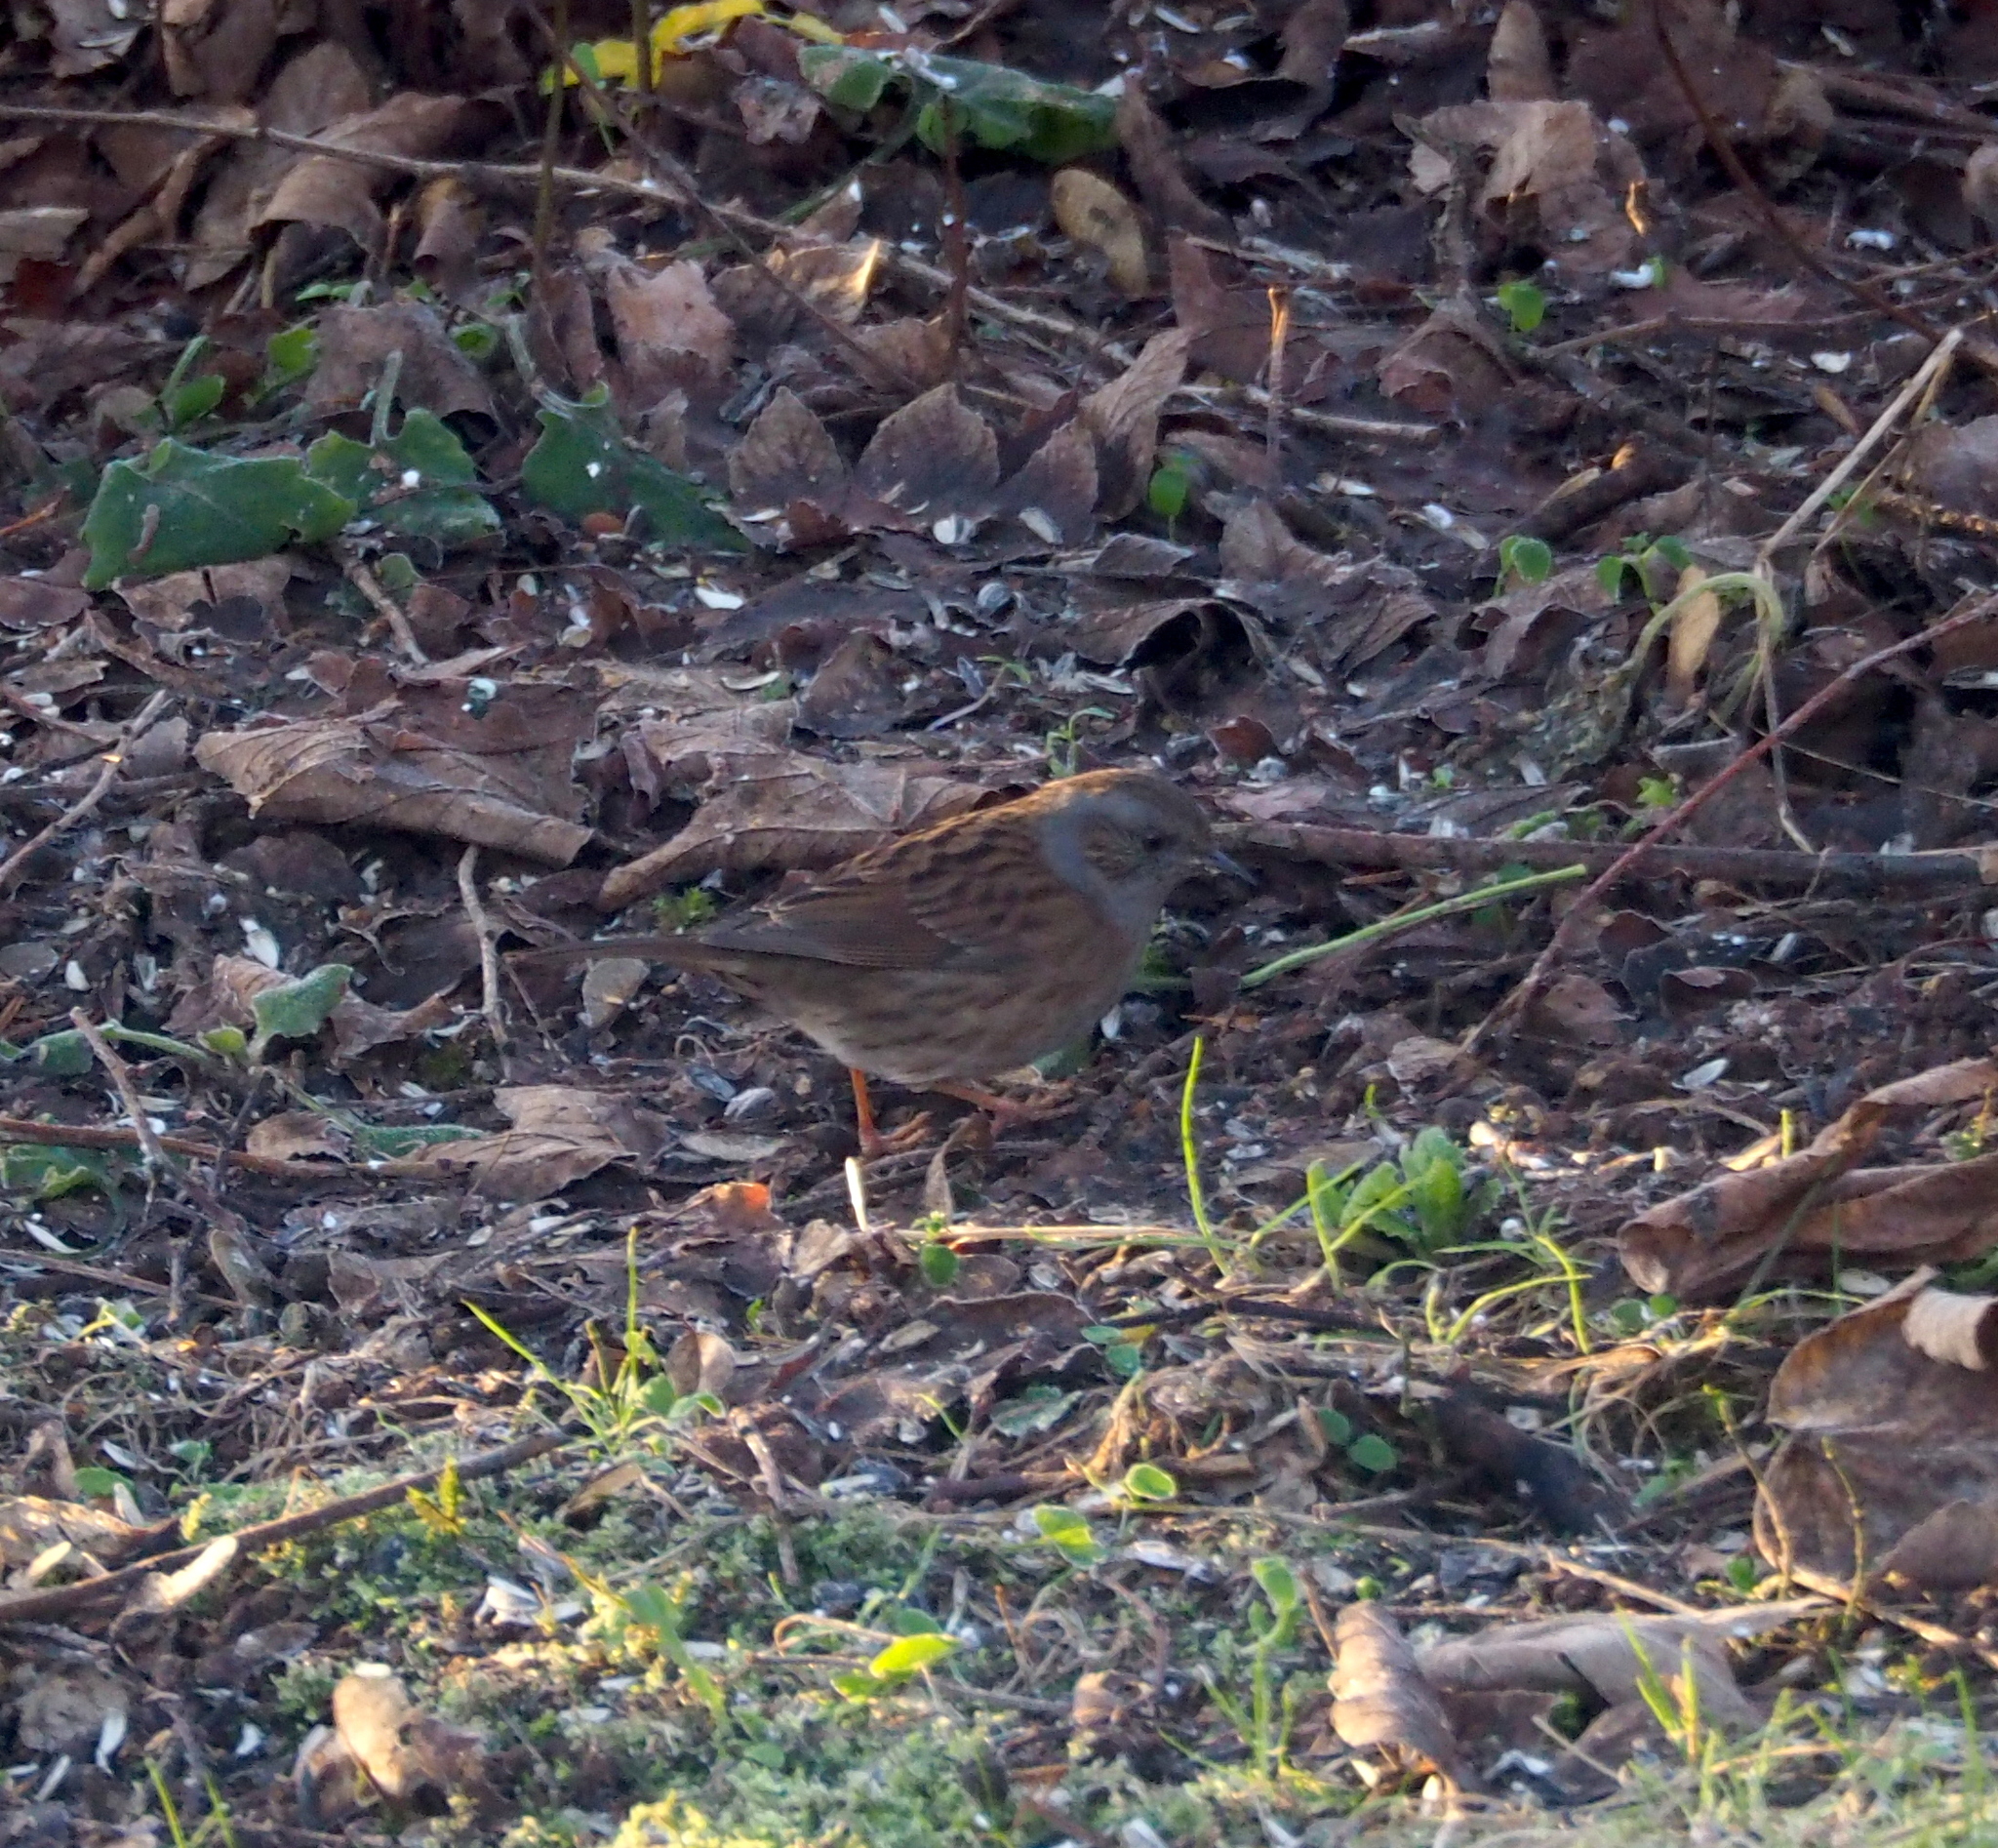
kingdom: Animalia
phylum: Chordata
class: Aves
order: Passeriformes
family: Prunellidae
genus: Prunella
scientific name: Prunella modularis
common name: Dunnock
